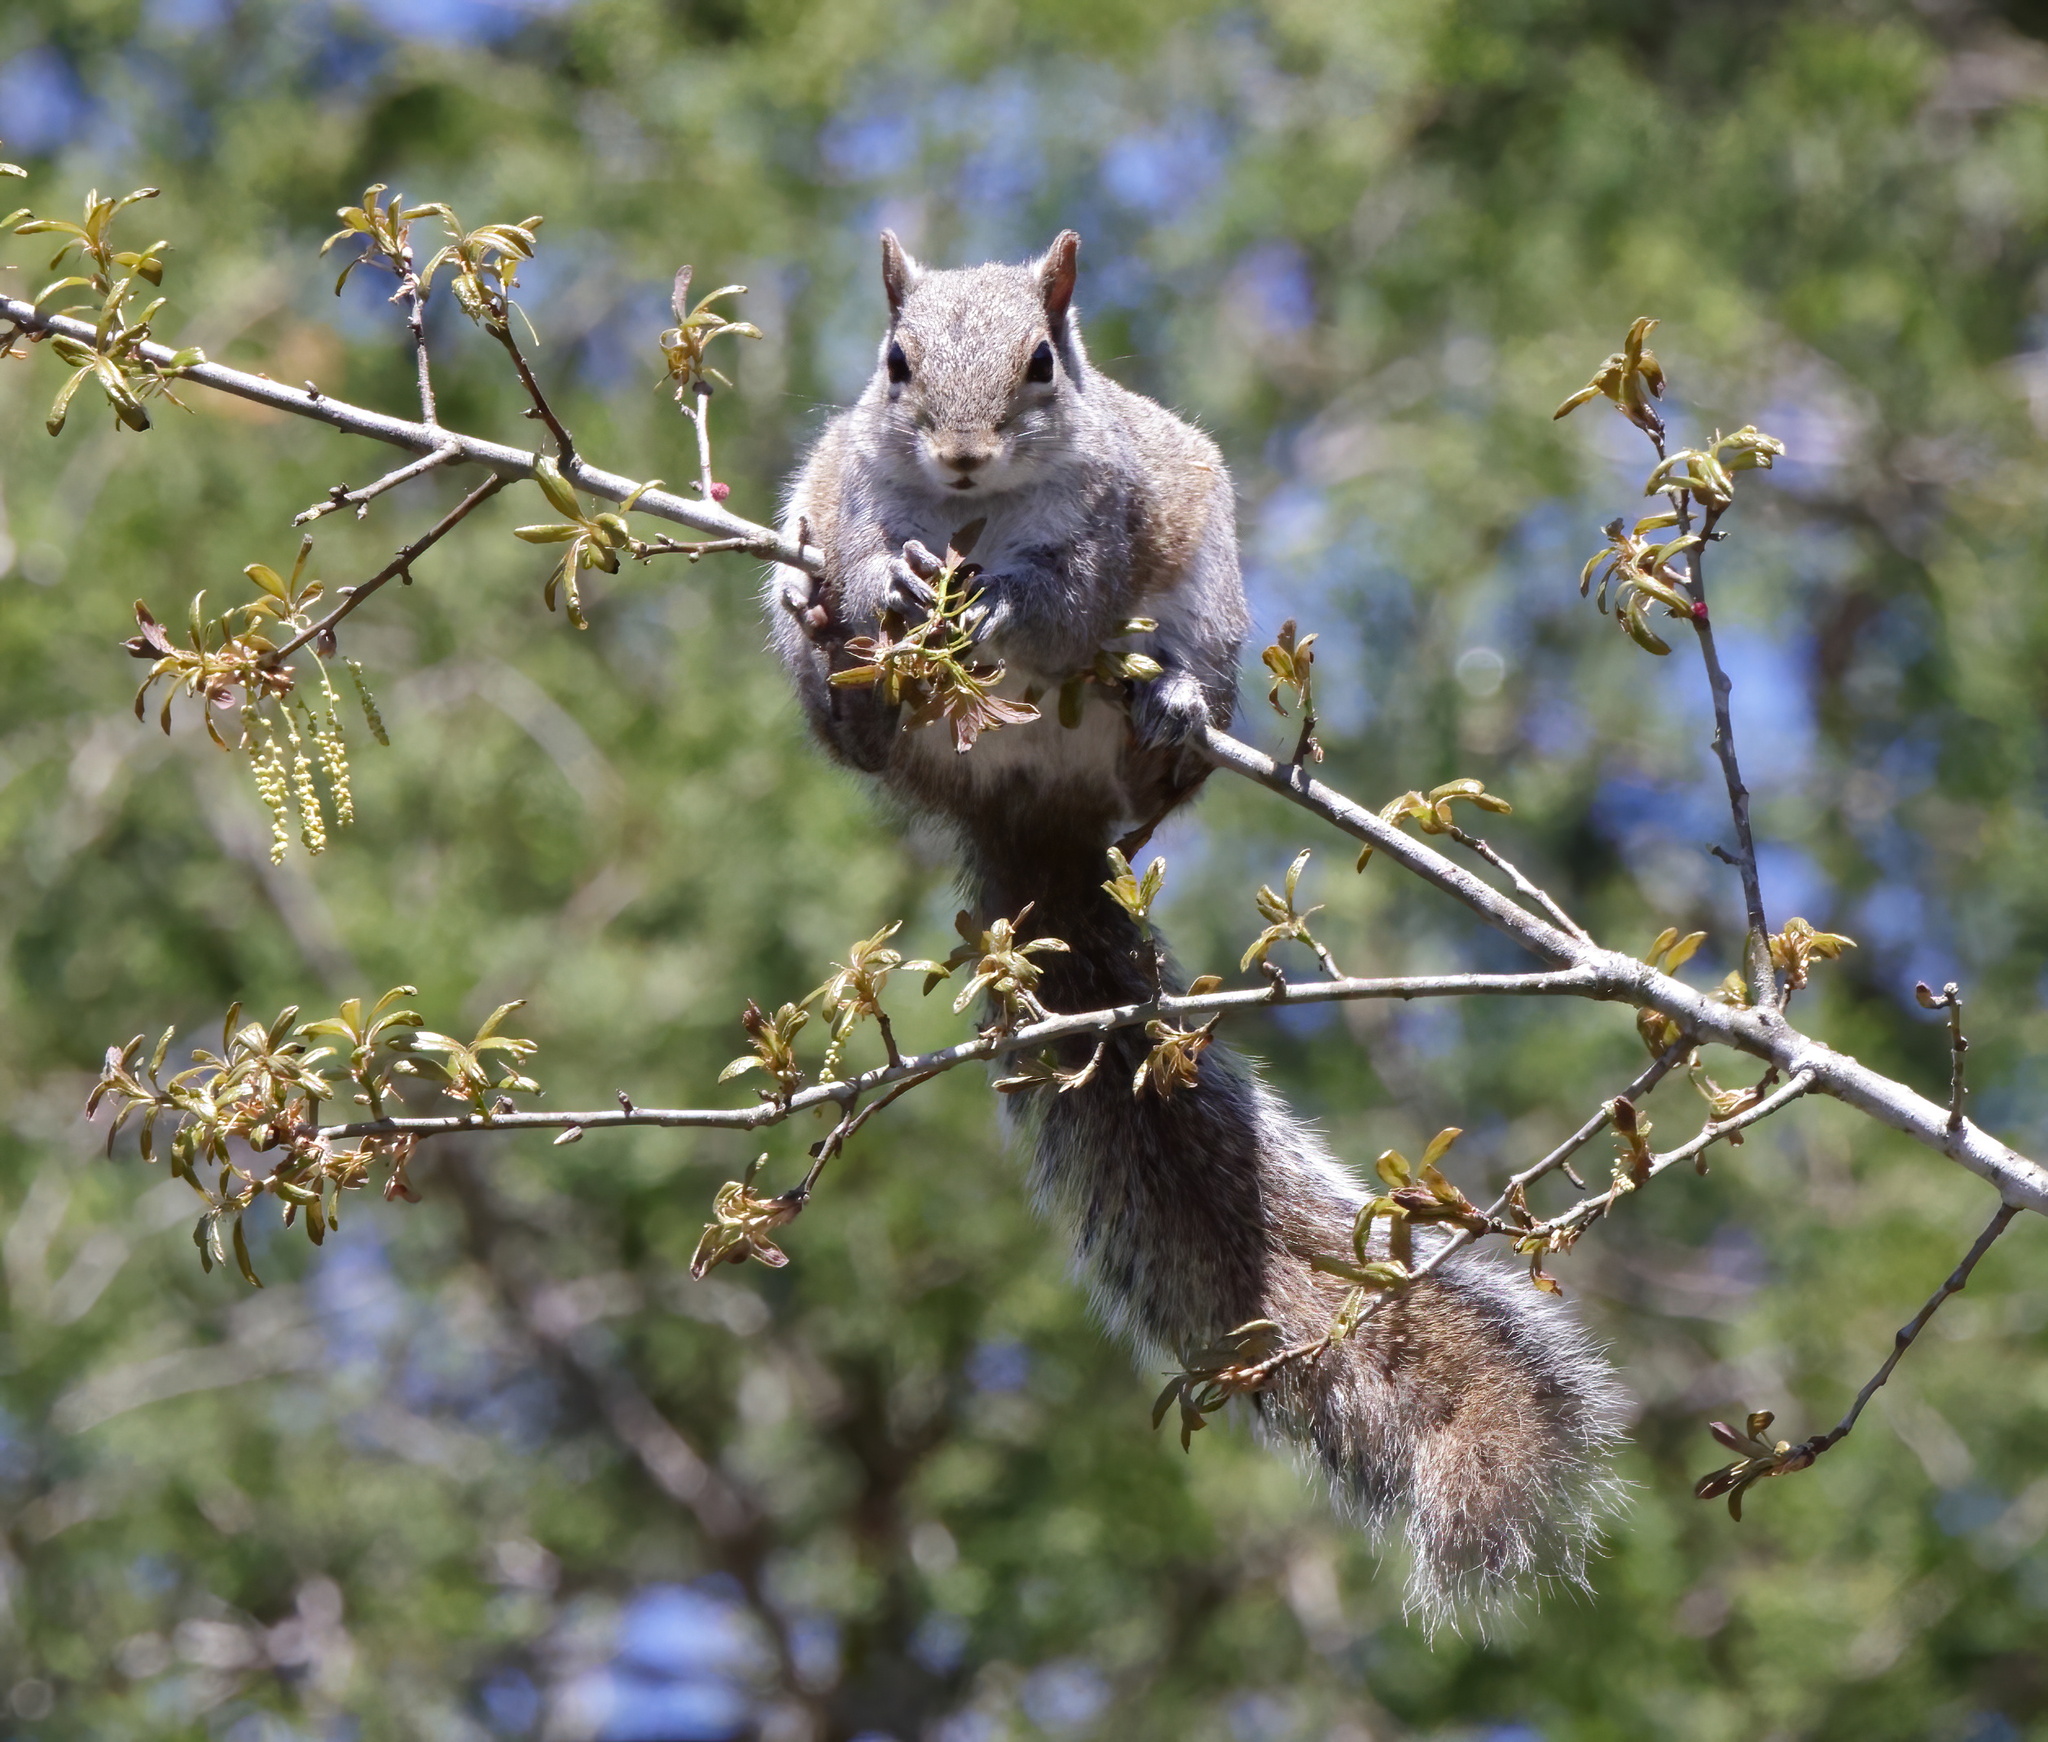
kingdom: Animalia
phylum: Chordata
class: Mammalia
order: Rodentia
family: Sciuridae
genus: Sciurus
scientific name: Sciurus carolinensis
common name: Eastern gray squirrel
